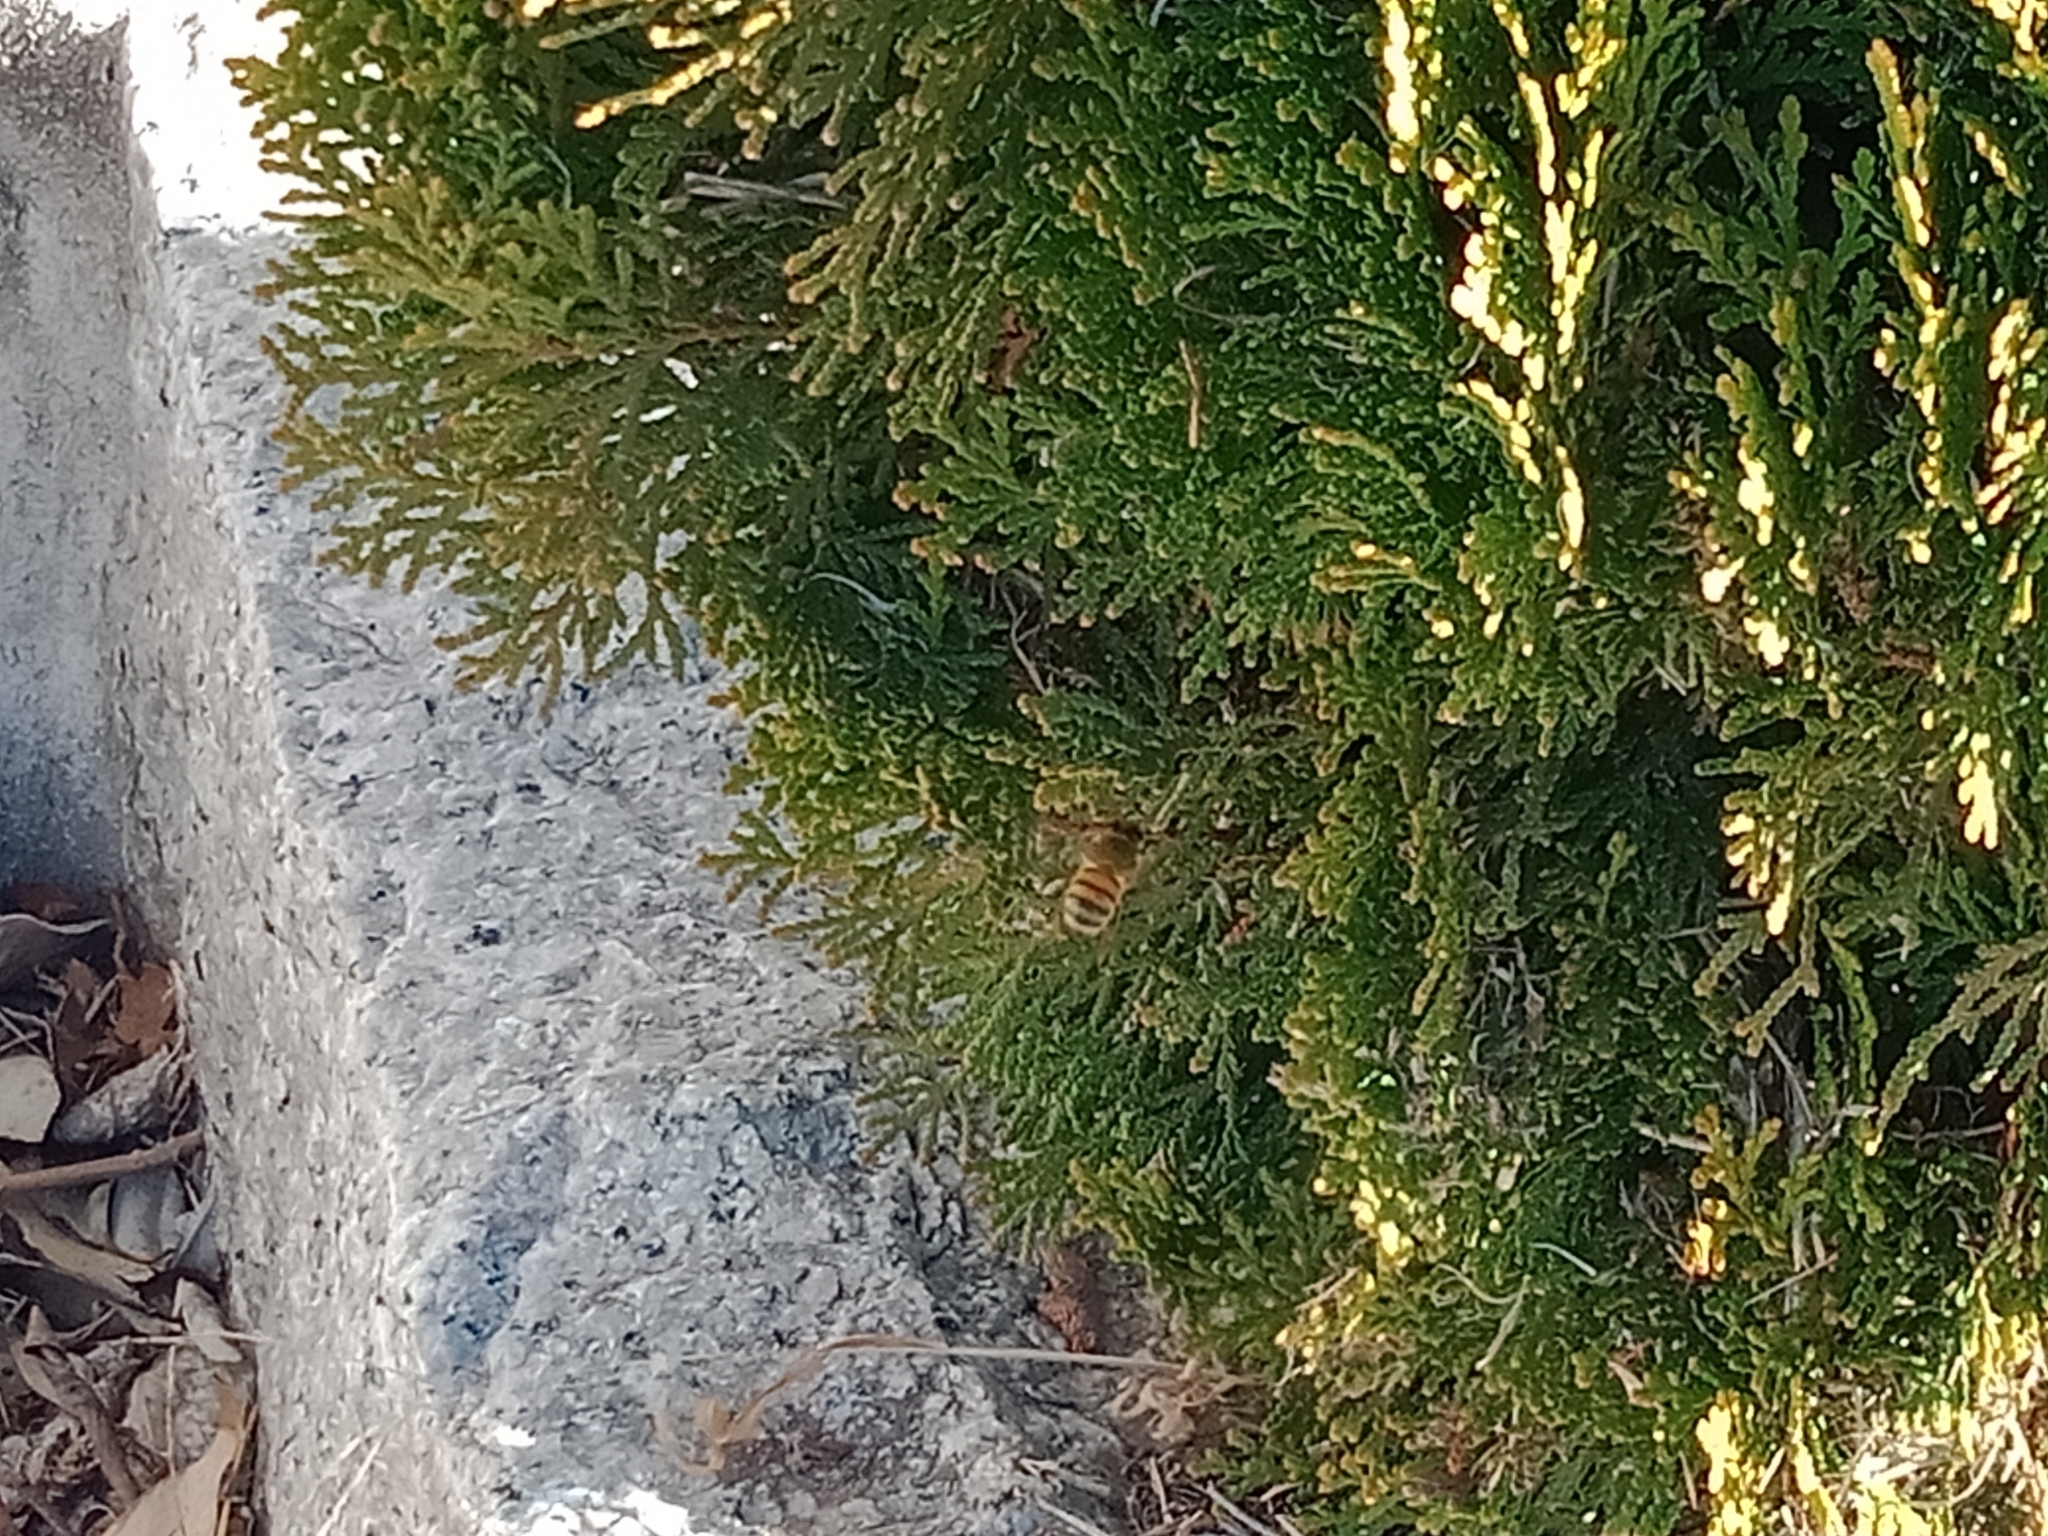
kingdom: Animalia
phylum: Arthropoda
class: Insecta
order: Hymenoptera
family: Apidae
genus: Apis
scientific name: Apis mellifera
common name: Honey bee
